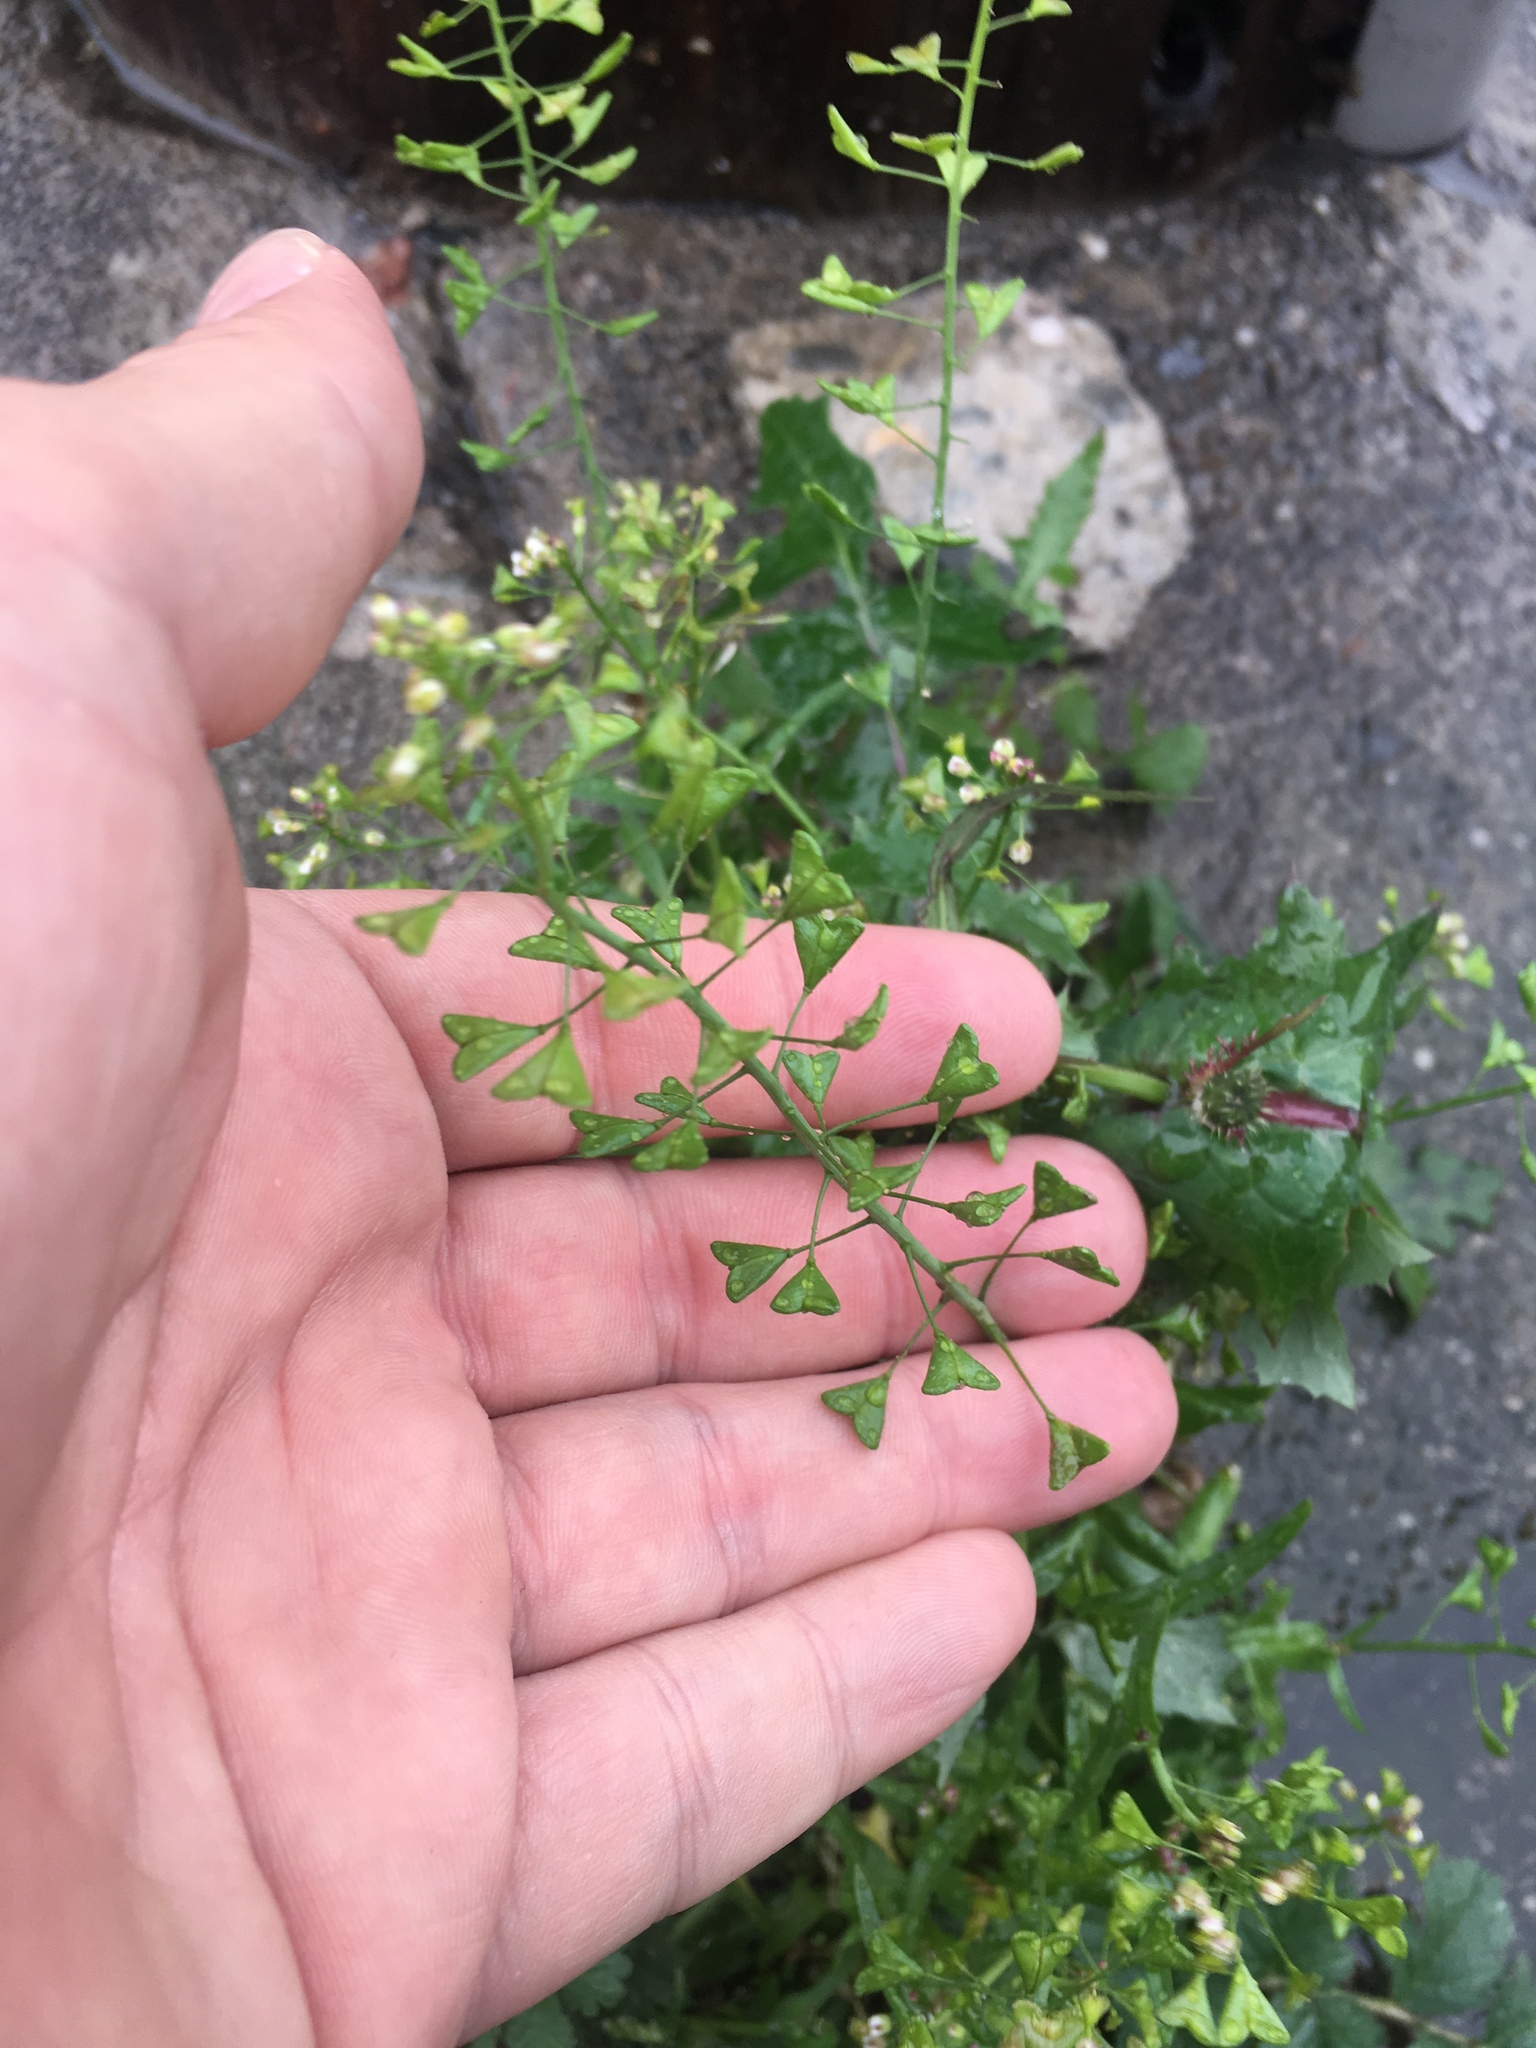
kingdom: Plantae
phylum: Tracheophyta
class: Magnoliopsida
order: Brassicales
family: Brassicaceae
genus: Capsella
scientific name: Capsella bursa-pastoris
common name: Shepherd's purse
